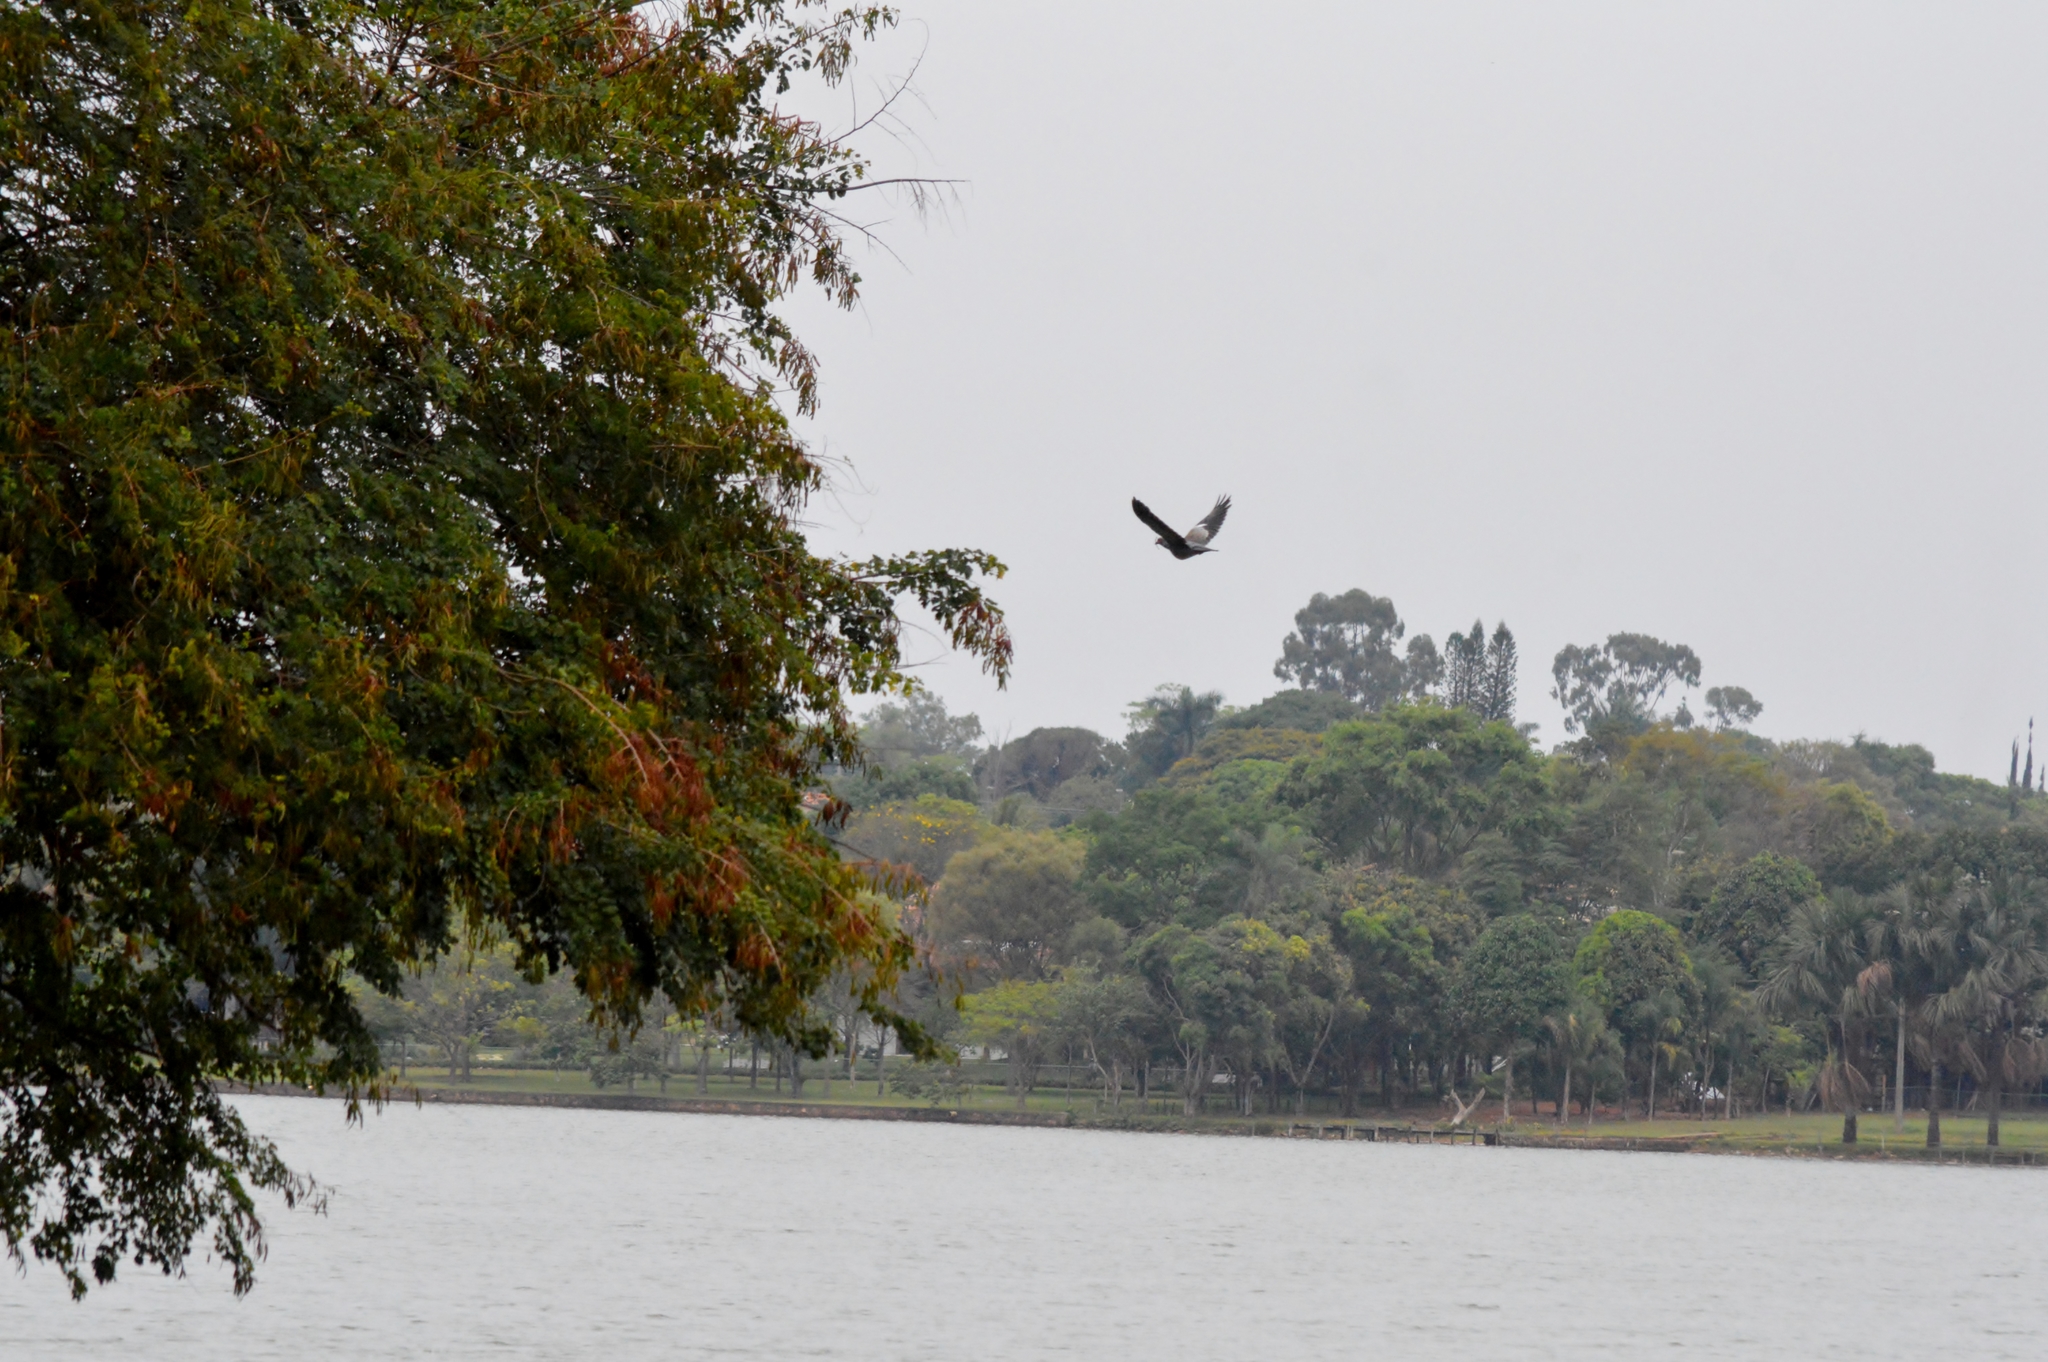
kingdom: Animalia
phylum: Chordata
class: Aves
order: Columbiformes
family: Columbidae
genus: Patagioenas
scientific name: Patagioenas picazuro
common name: Picazuro pigeon
